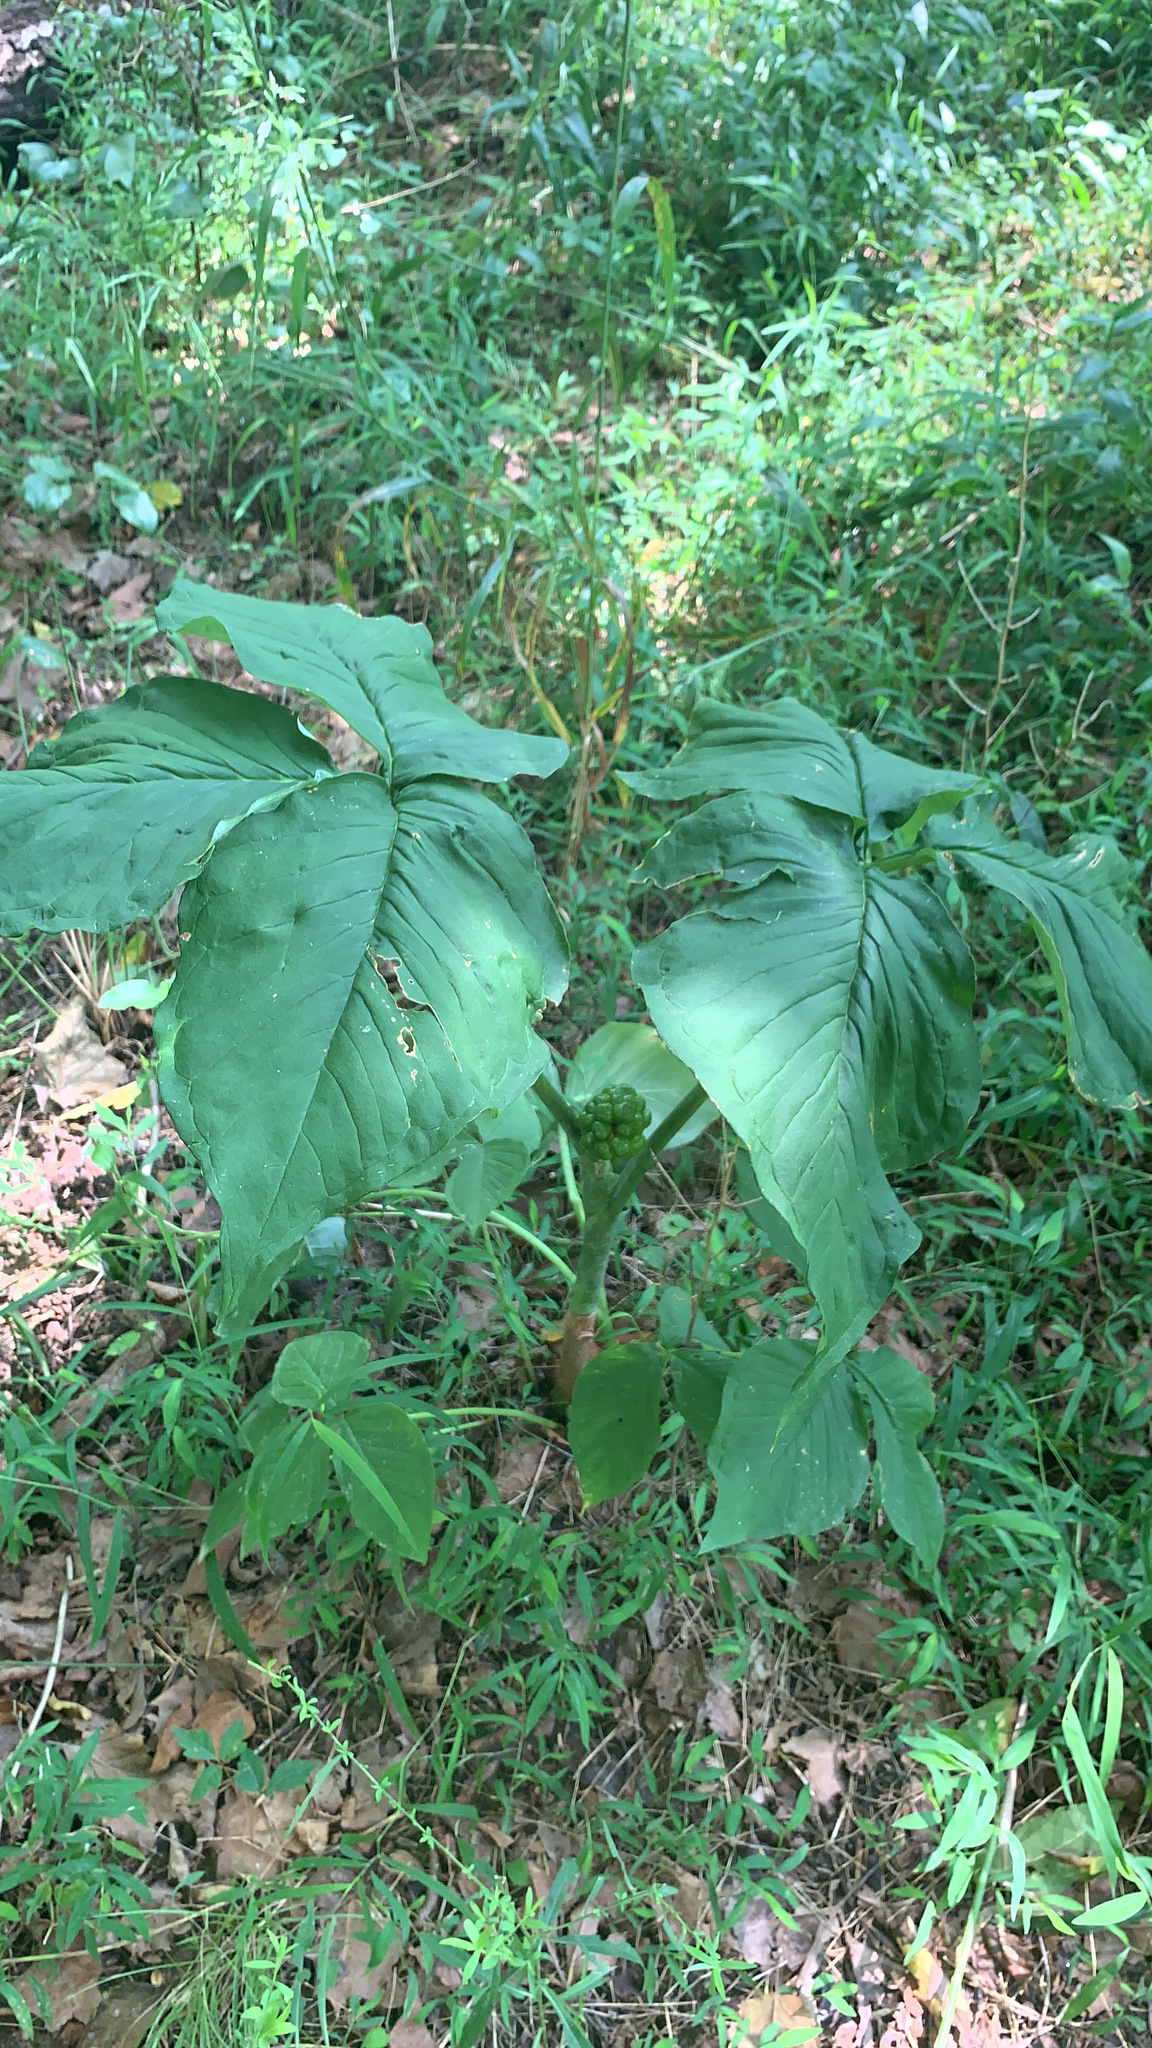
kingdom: Plantae
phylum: Tracheophyta
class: Liliopsida
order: Alismatales
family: Araceae
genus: Arisaema
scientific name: Arisaema triphyllum
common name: Jack-in-the-pulpit
